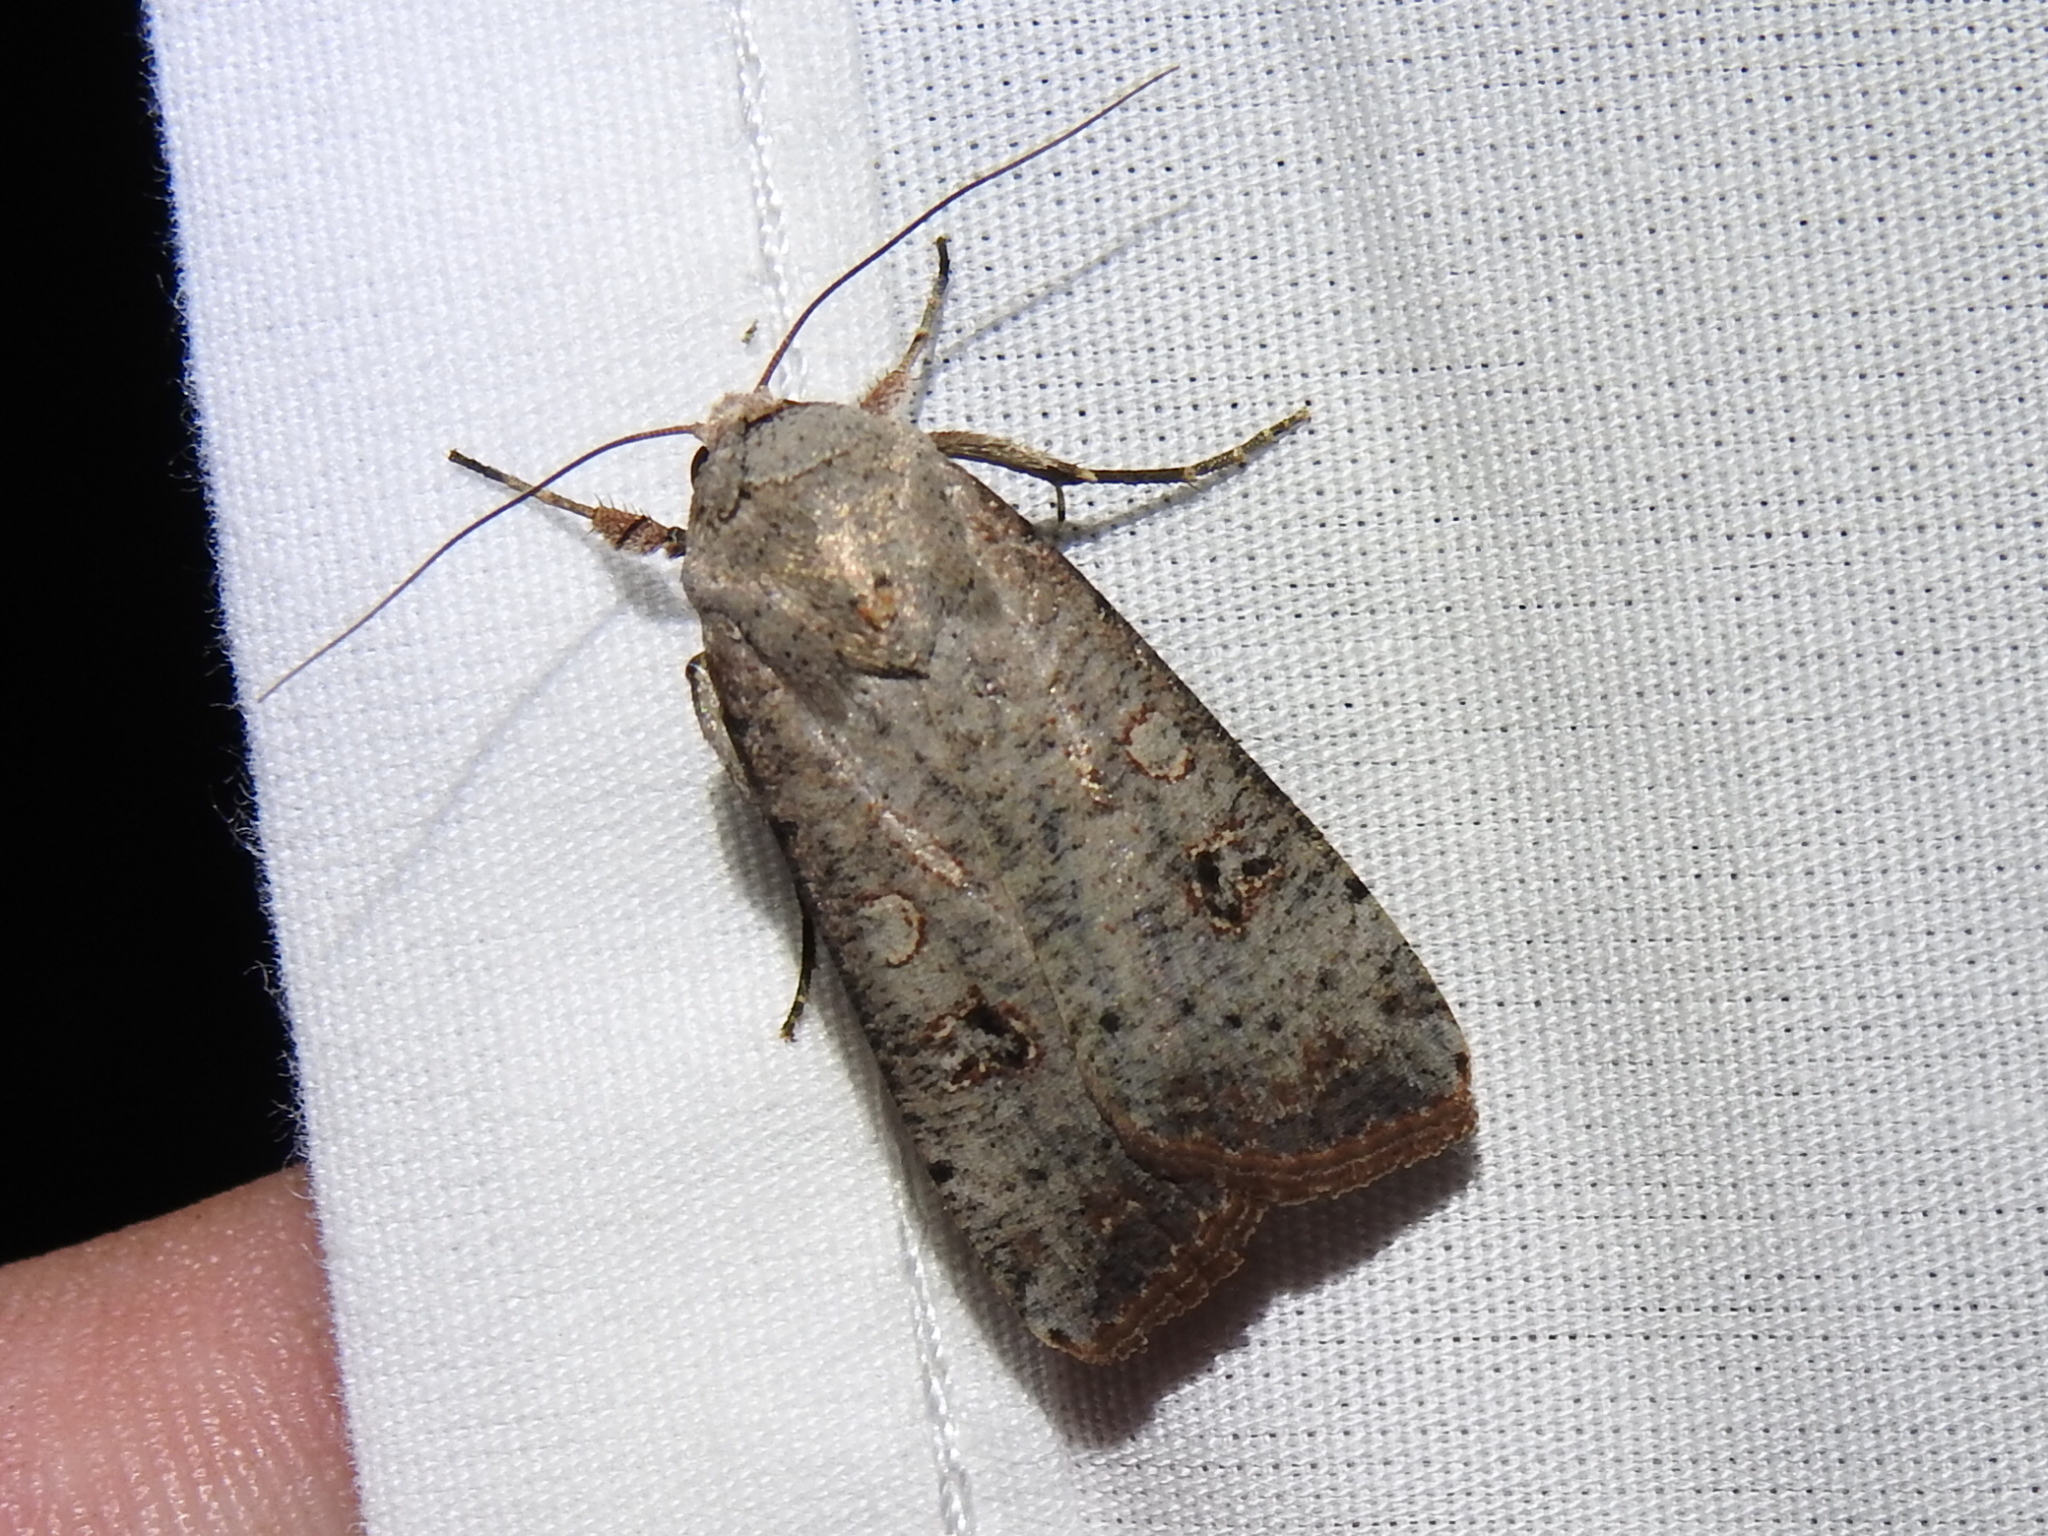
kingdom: Animalia
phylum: Arthropoda
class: Insecta
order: Lepidoptera
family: Noctuidae
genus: Anicla
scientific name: Anicla infecta
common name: Green cutworm
